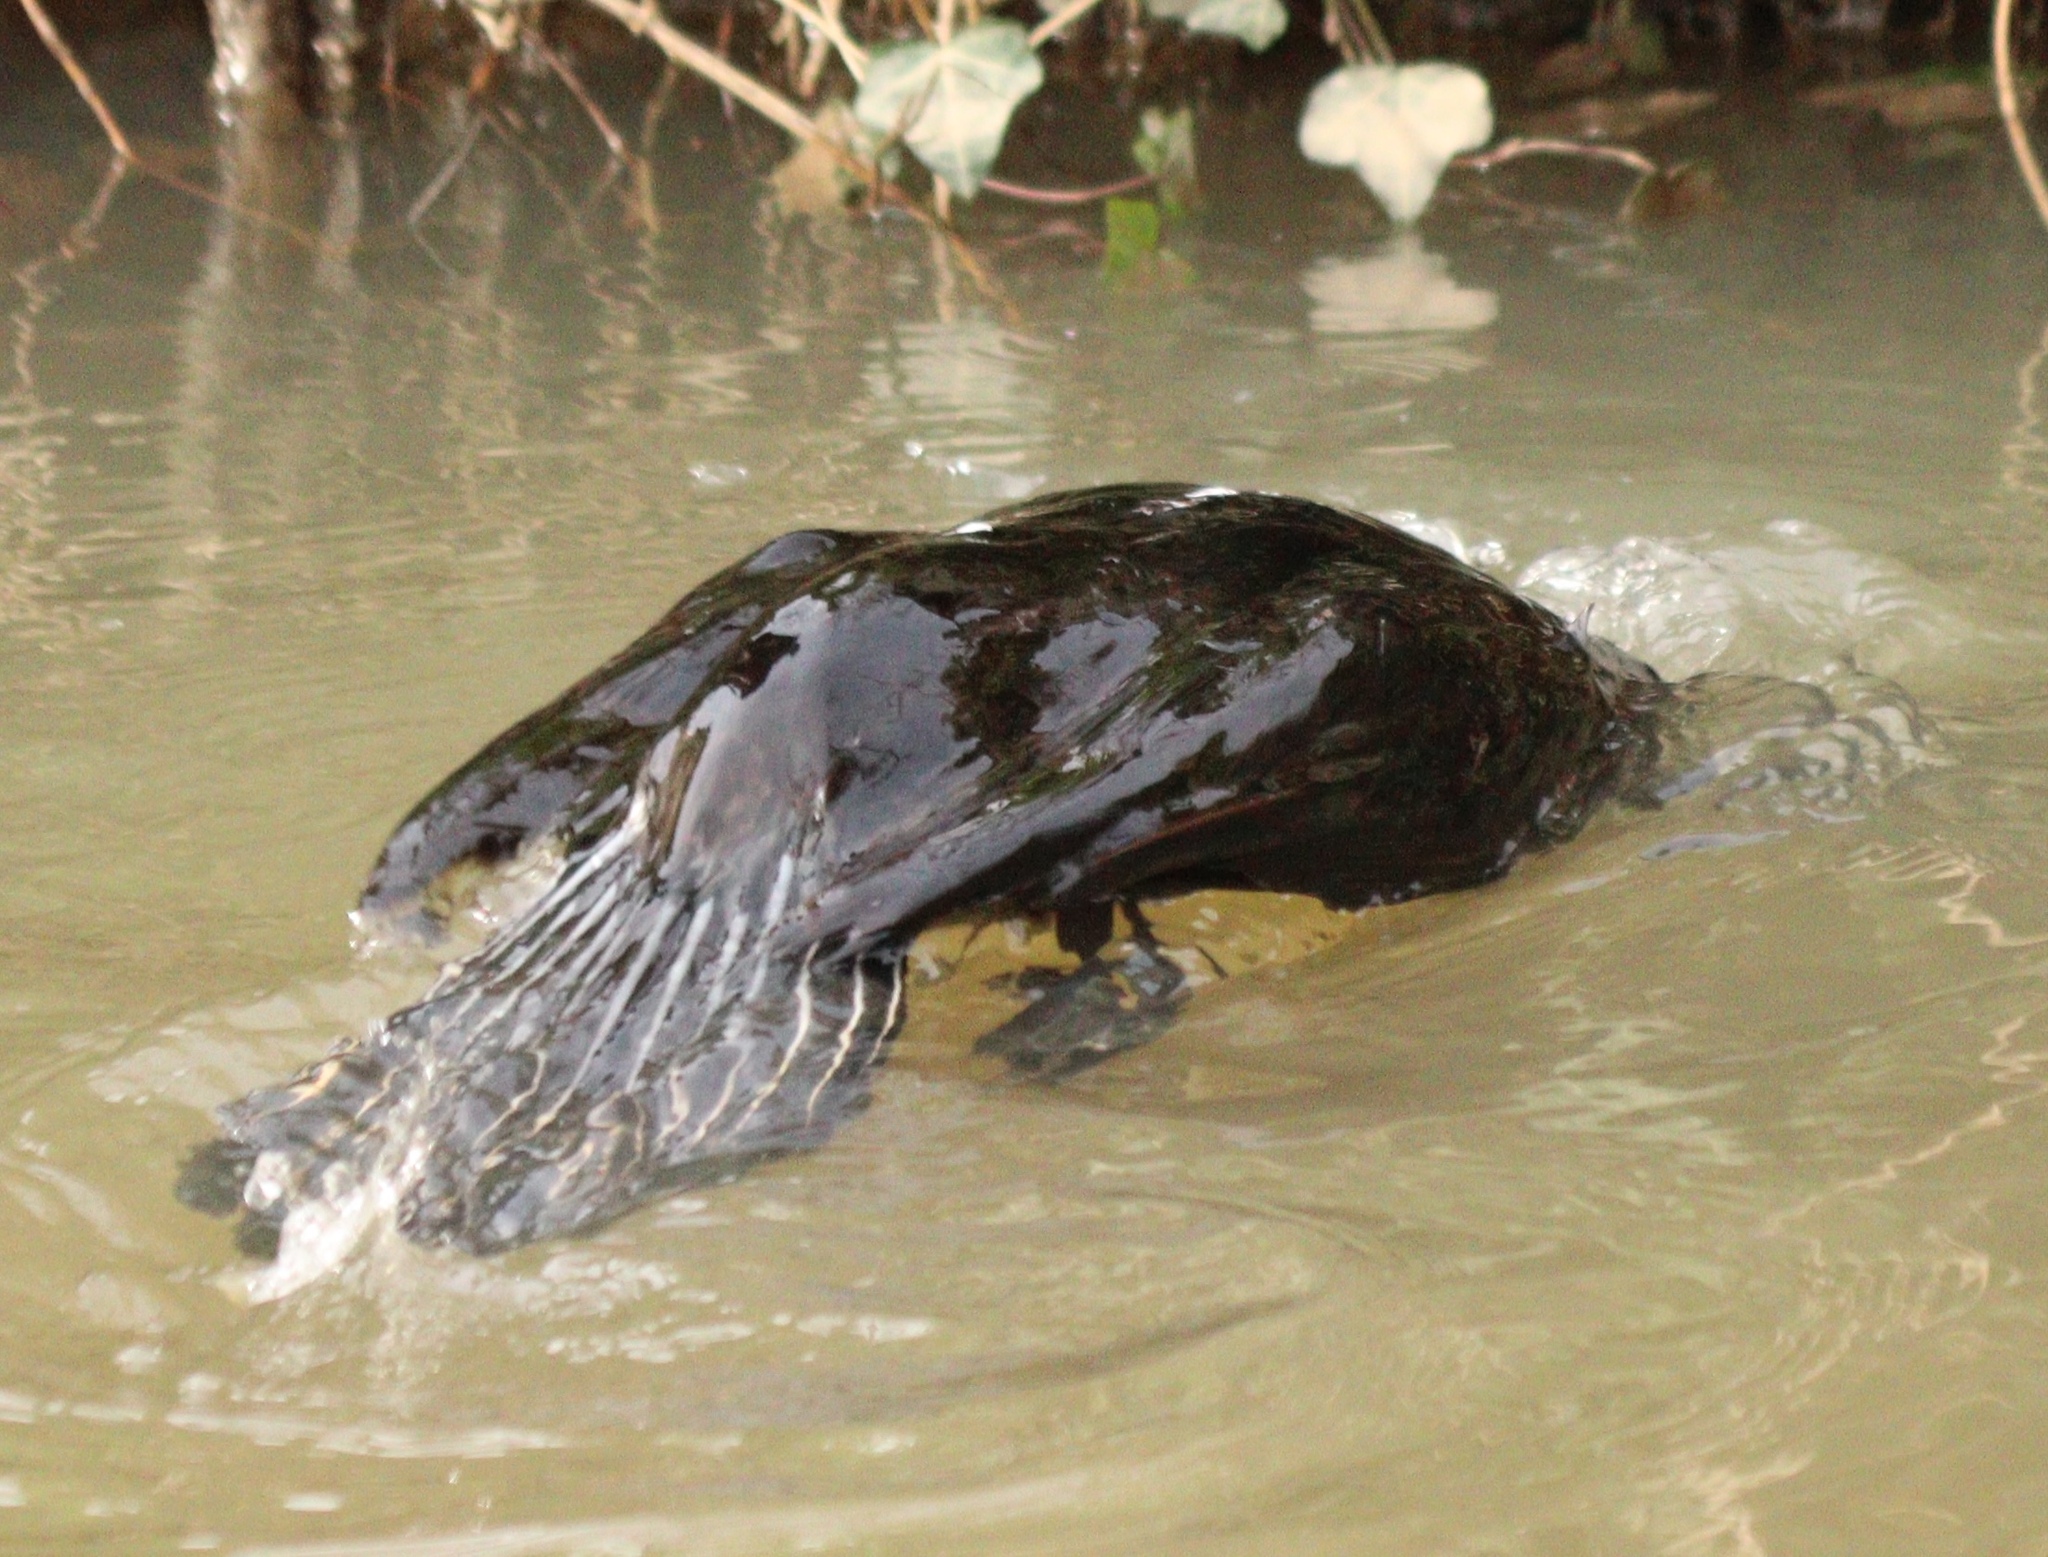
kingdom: Animalia
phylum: Chordata
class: Aves
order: Suliformes
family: Phalacrocoracidae
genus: Phalacrocorax
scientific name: Phalacrocorax carbo
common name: Great cormorant
